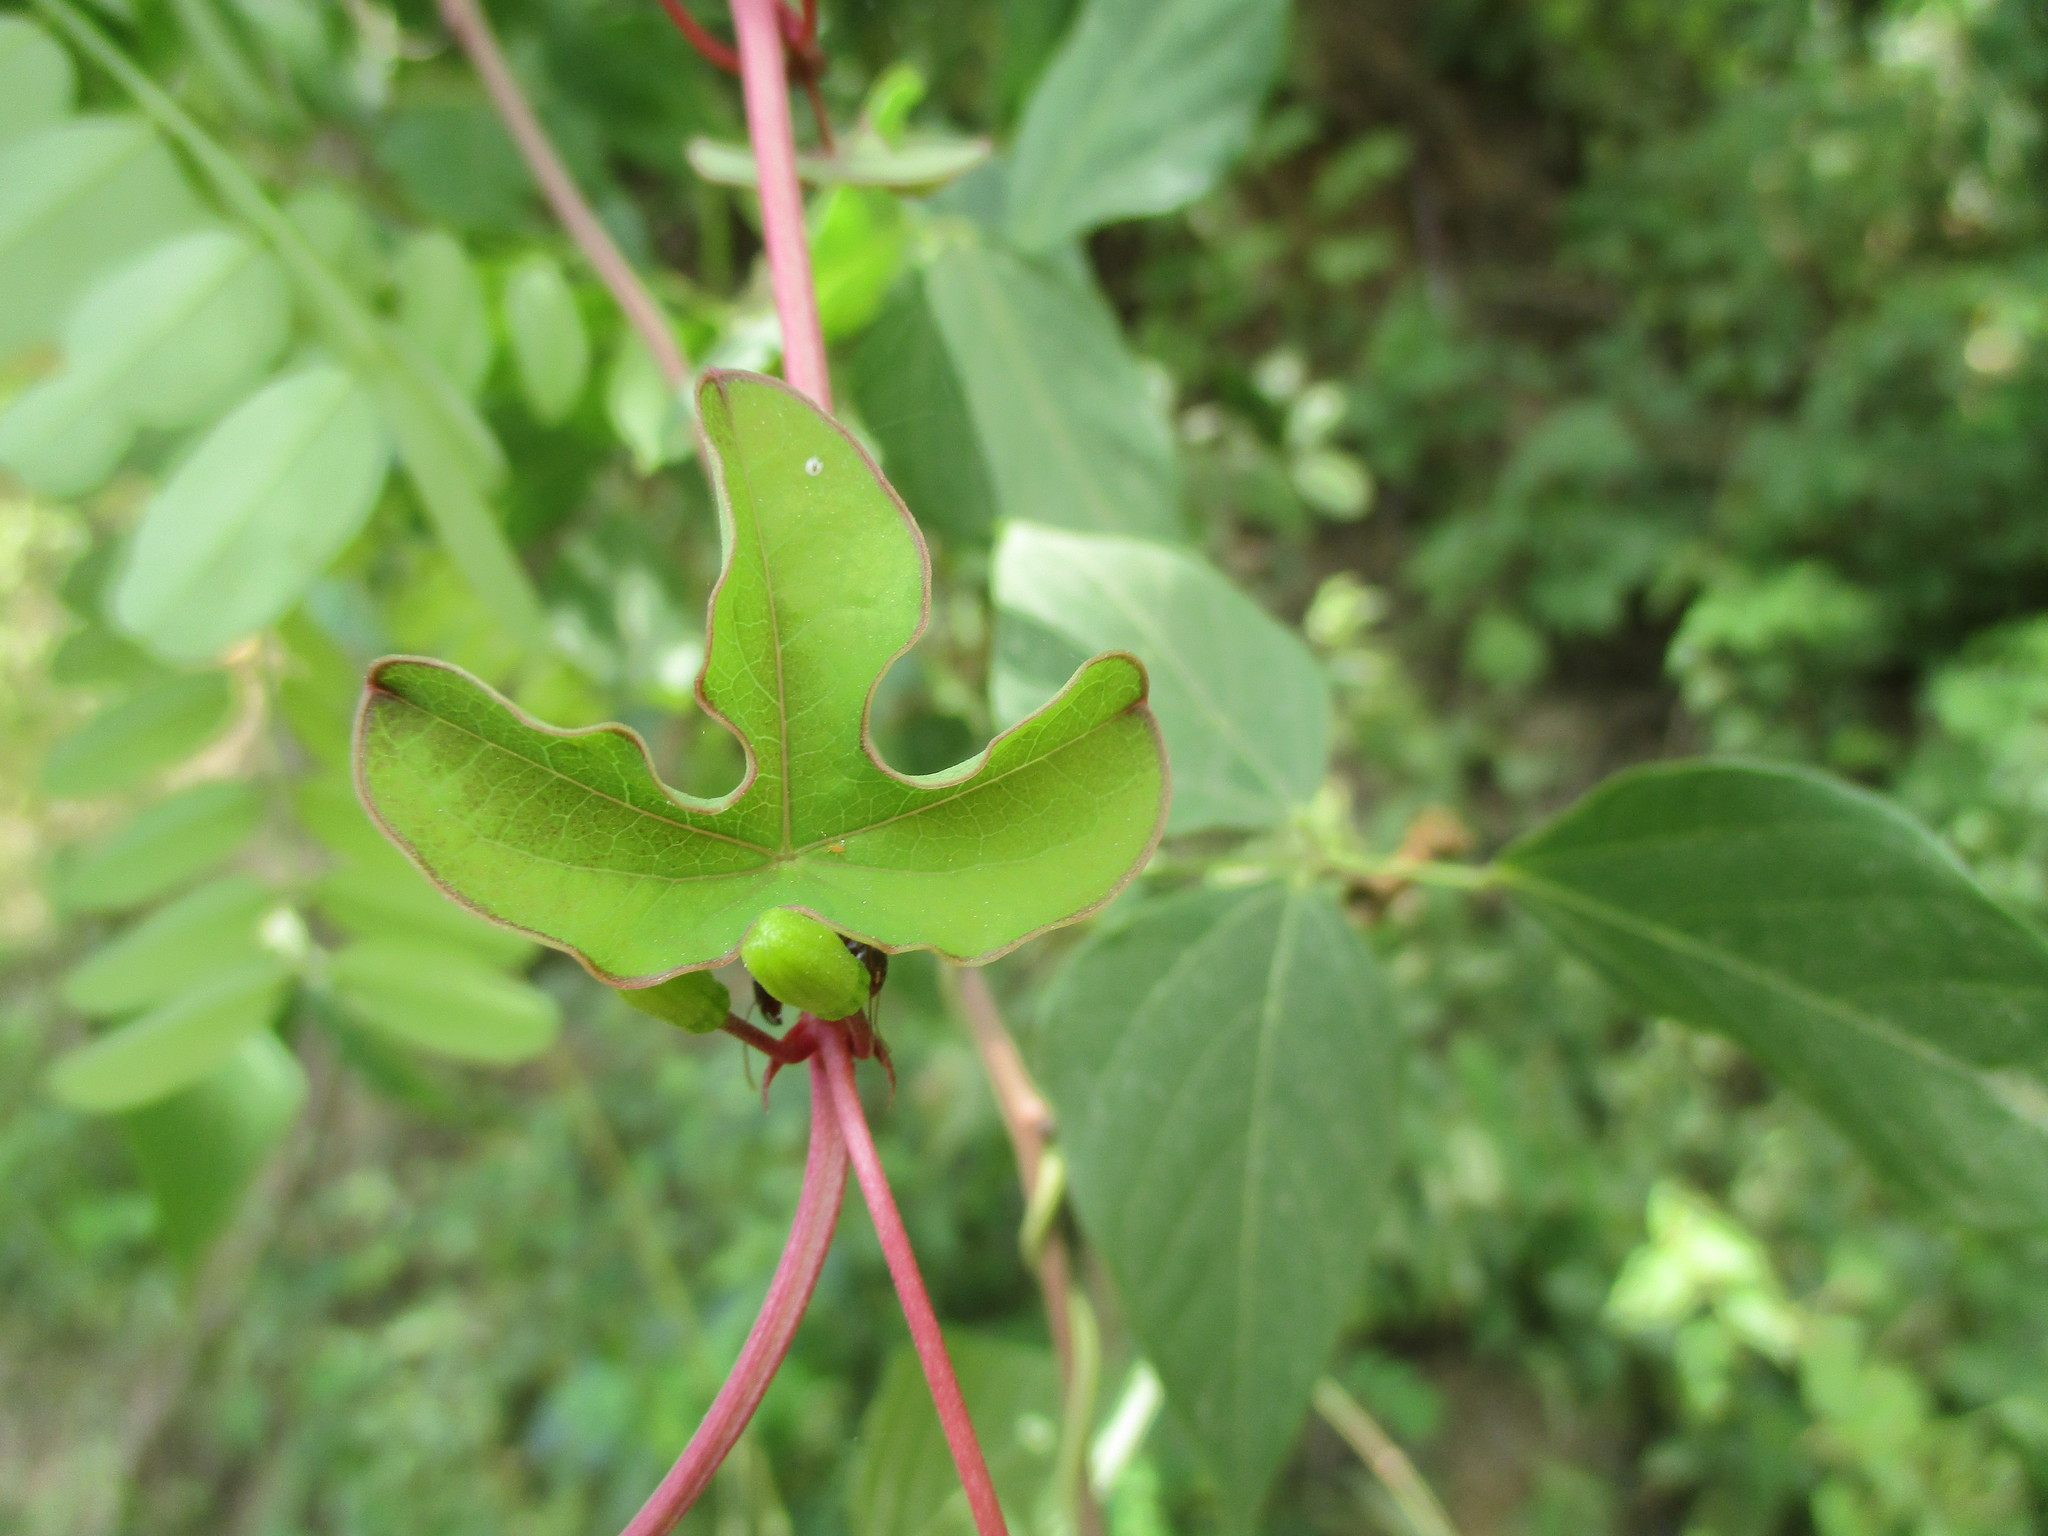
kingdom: Plantae
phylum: Tracheophyta
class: Magnoliopsida
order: Malpighiales
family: Passifloraceae
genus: Passiflora
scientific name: Passiflora viridiflora
